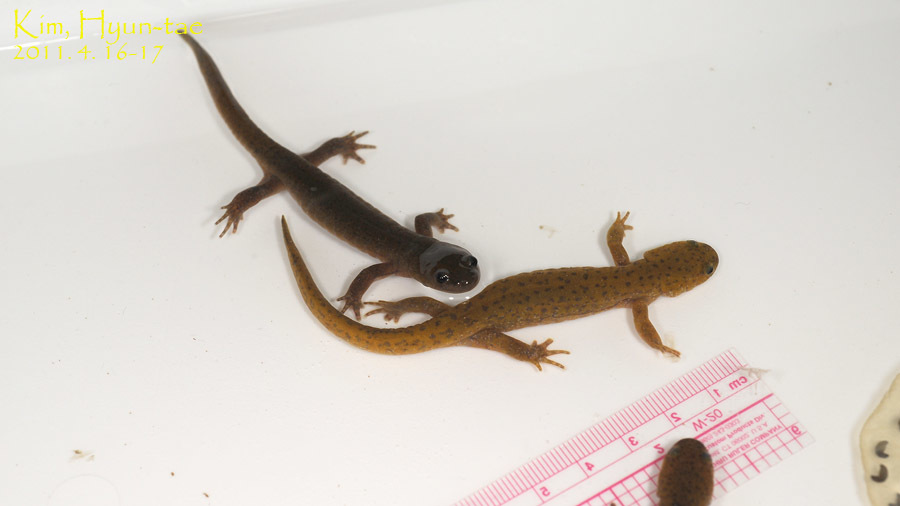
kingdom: Animalia
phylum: Chordata
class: Amphibia
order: Caudata
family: Hynobiidae
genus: Hynobius
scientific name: Hynobius leechii
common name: Gensan salamander
